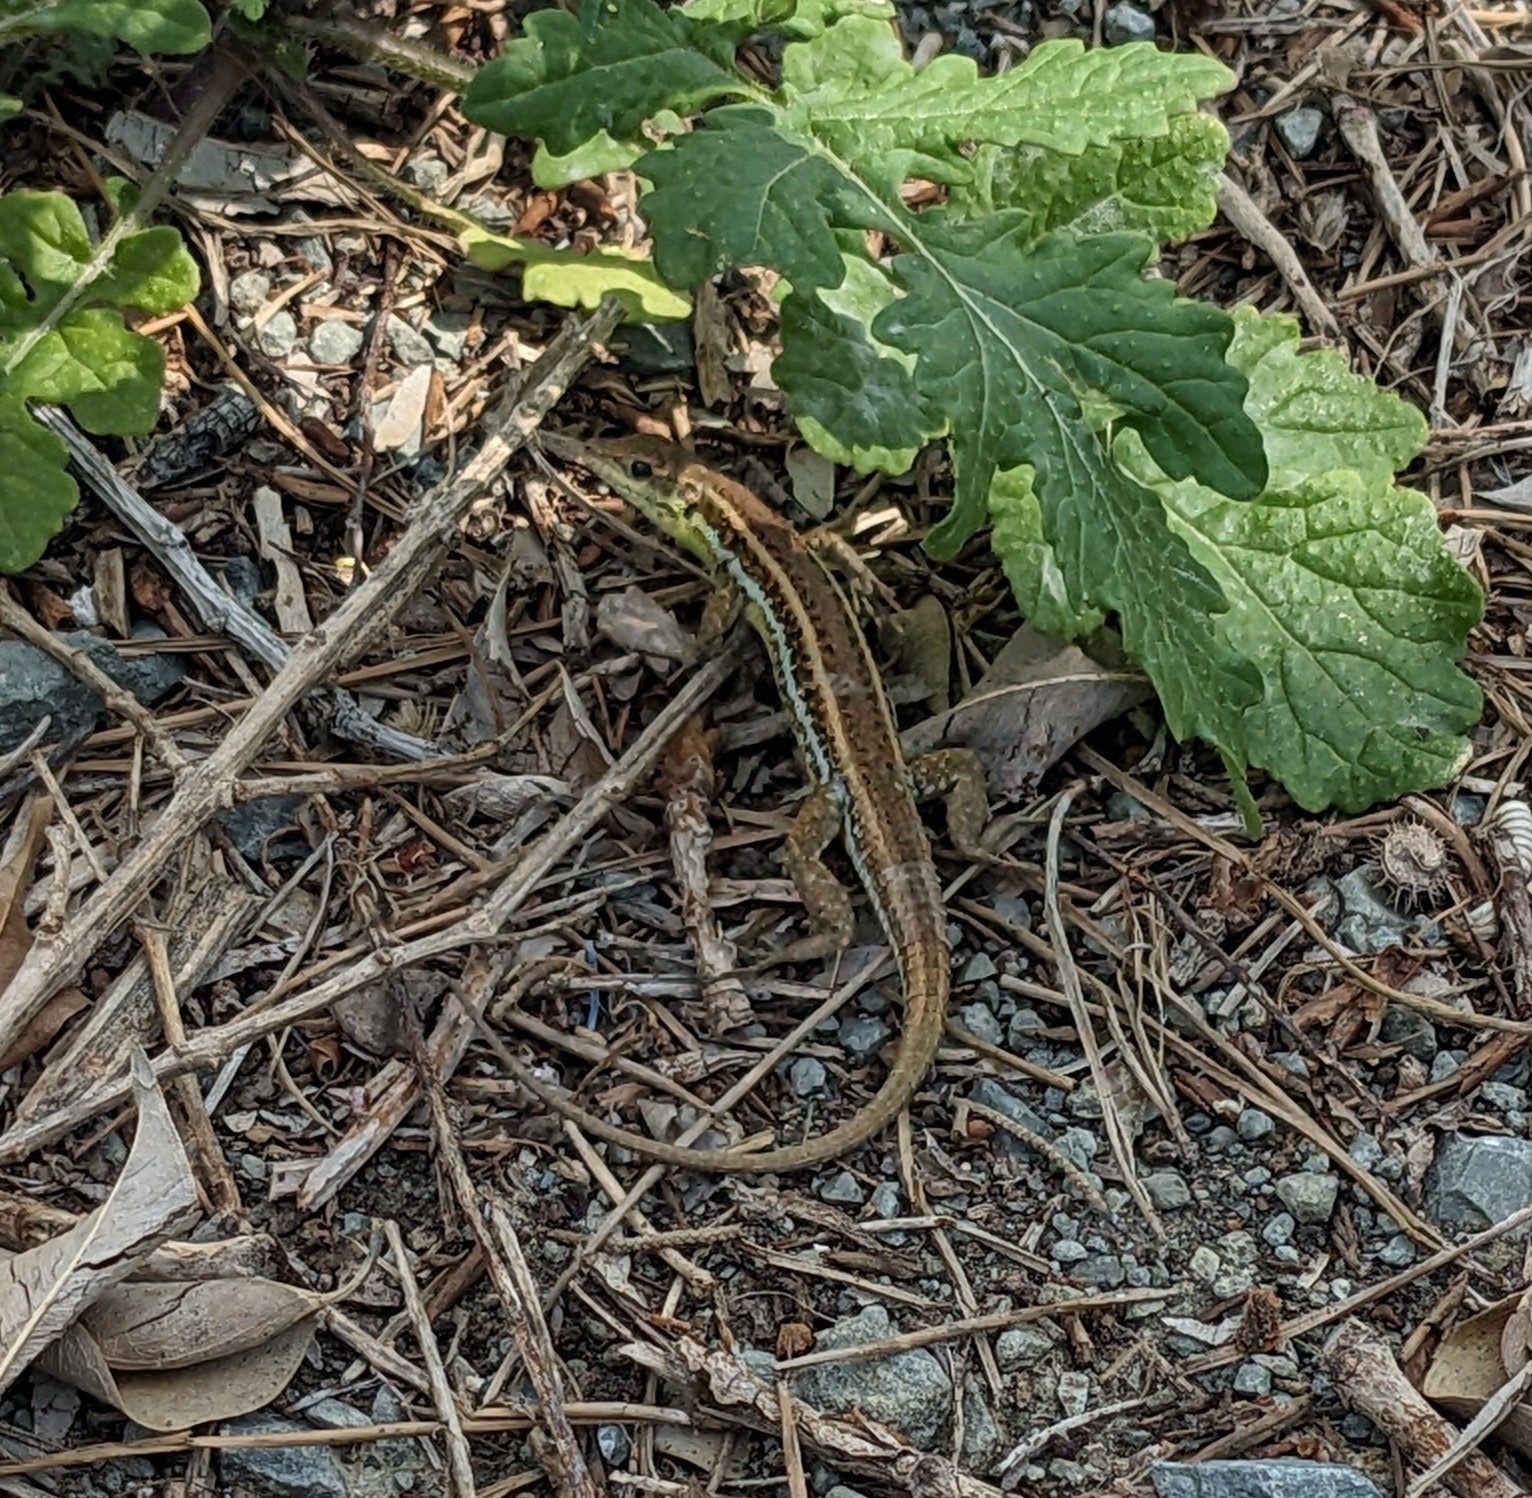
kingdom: Animalia
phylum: Chordata
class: Squamata
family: Lacertidae
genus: Ophisops
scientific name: Ophisops elegans
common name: Snake-eyed lizard
